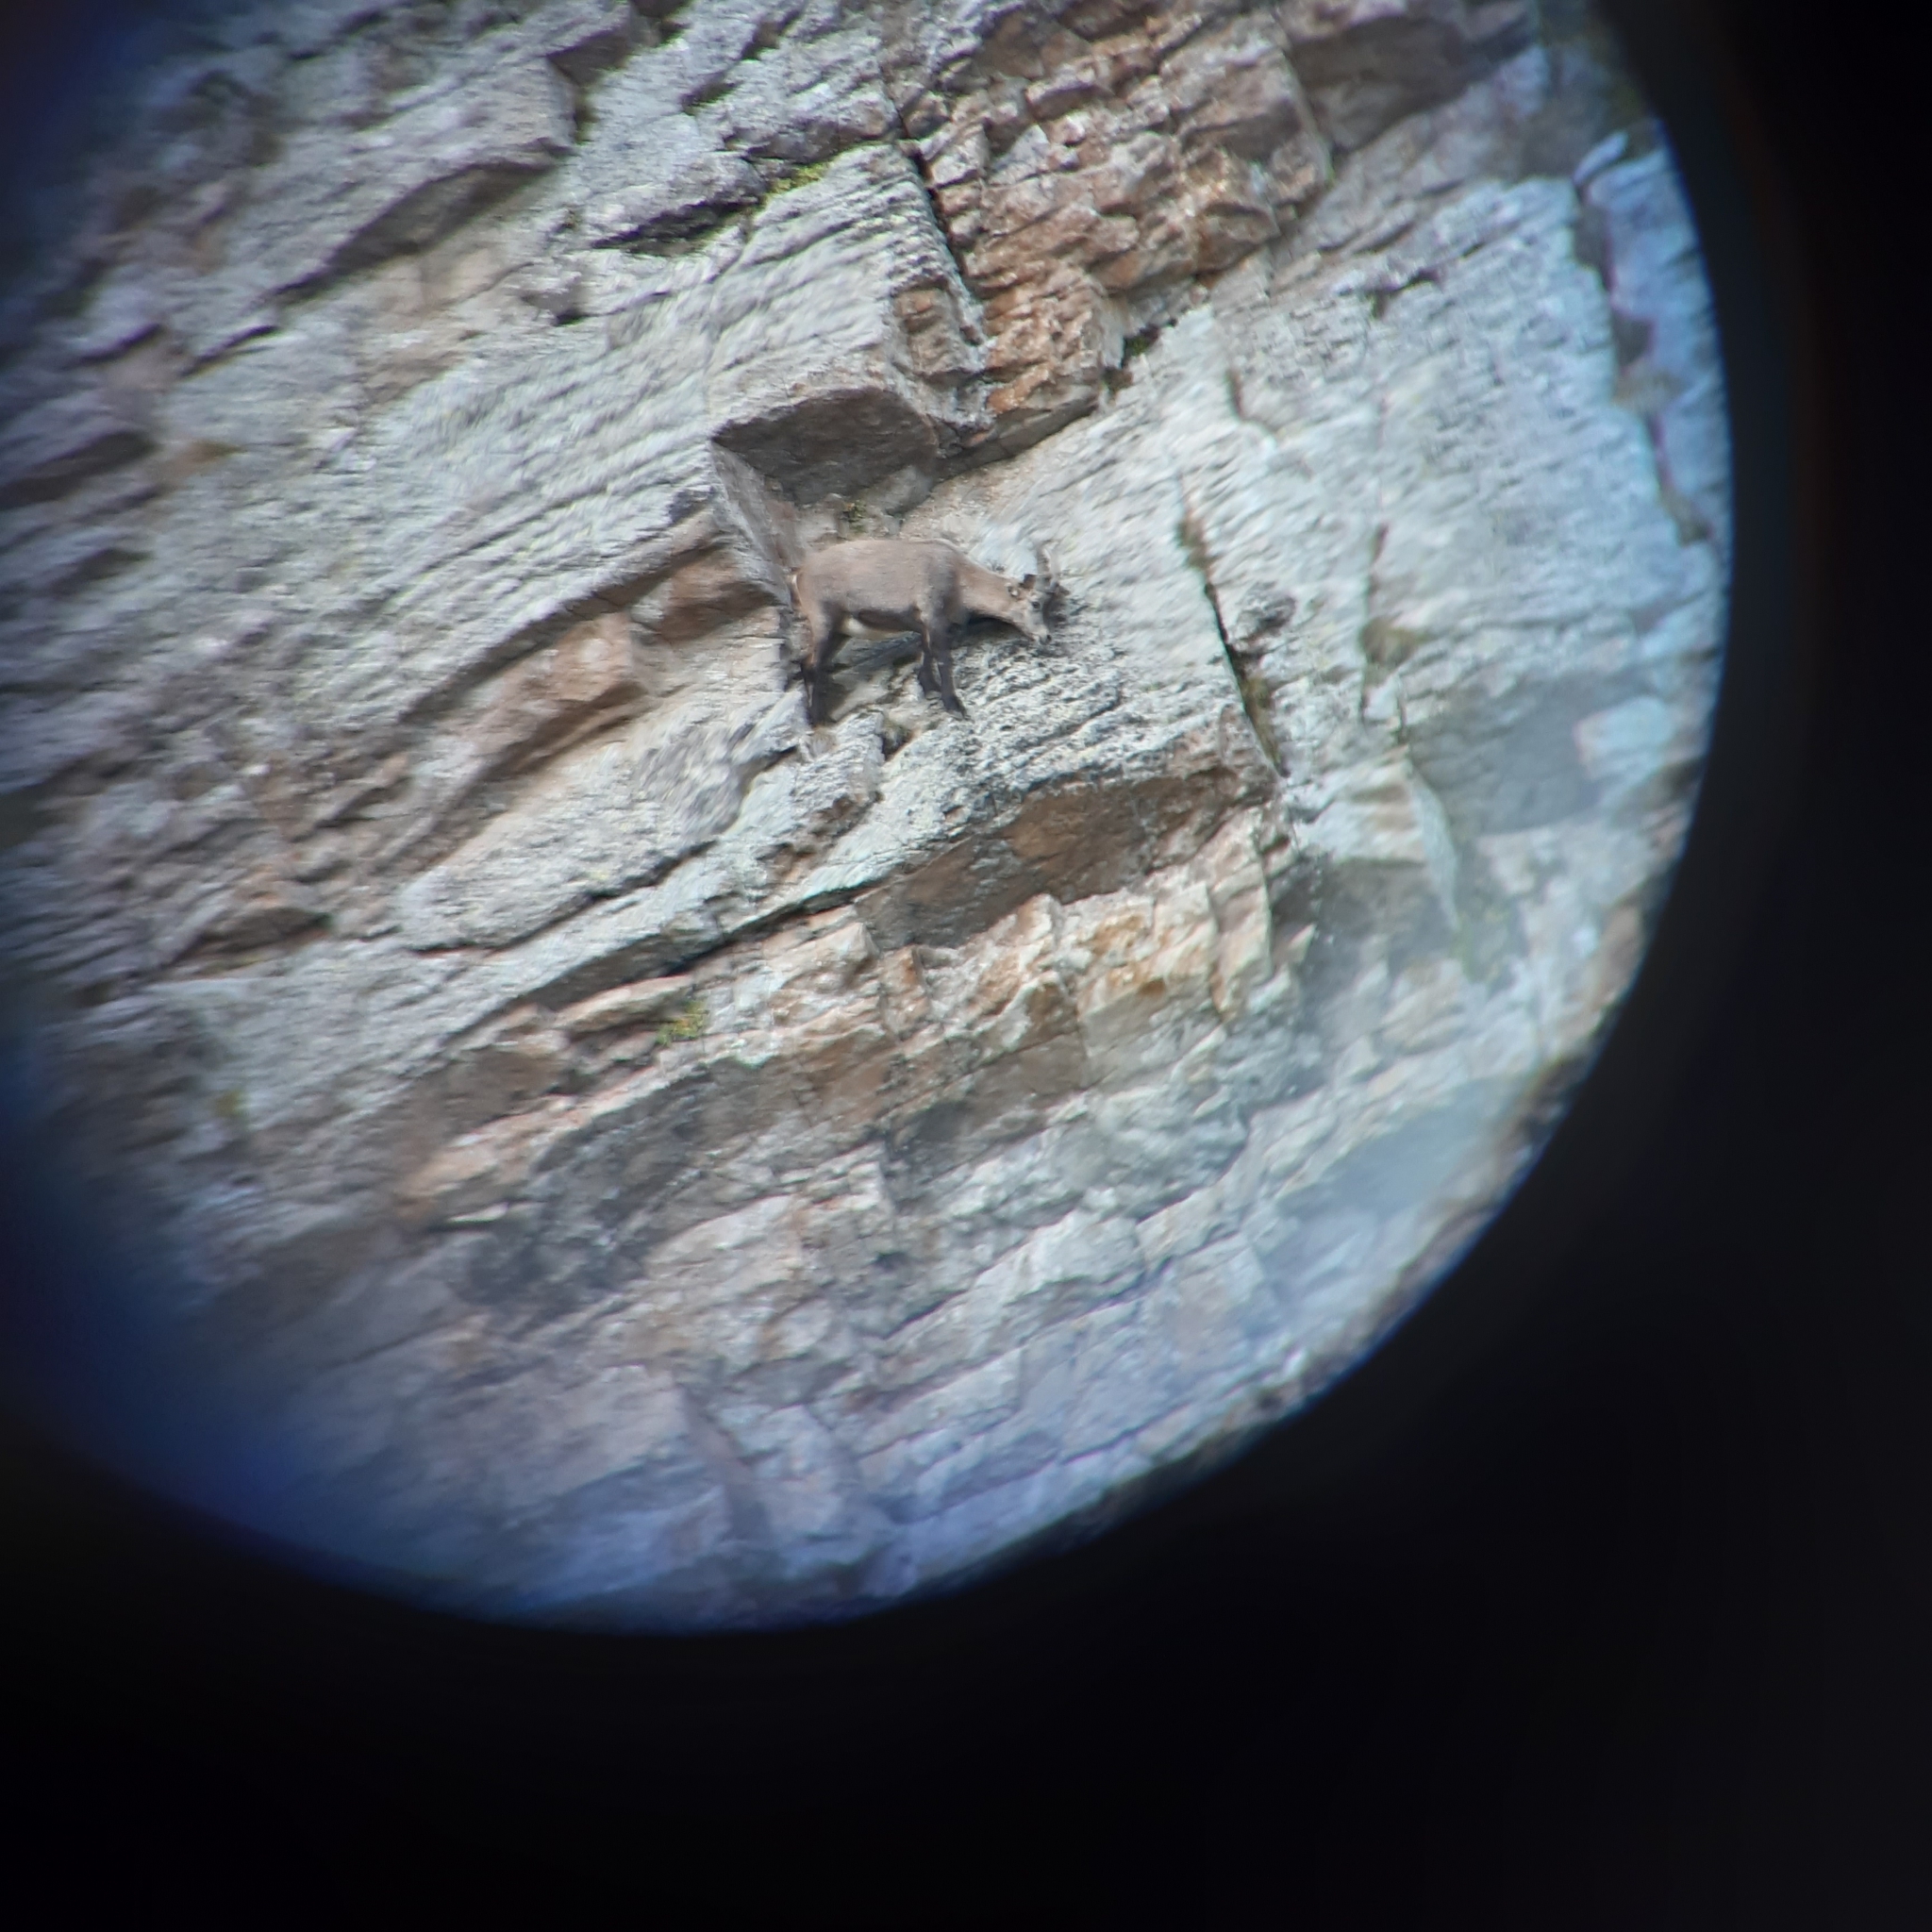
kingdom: Animalia
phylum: Chordata
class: Mammalia
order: Artiodactyla
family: Bovidae
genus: Capra
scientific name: Capra ibex
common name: Alpine ibex
